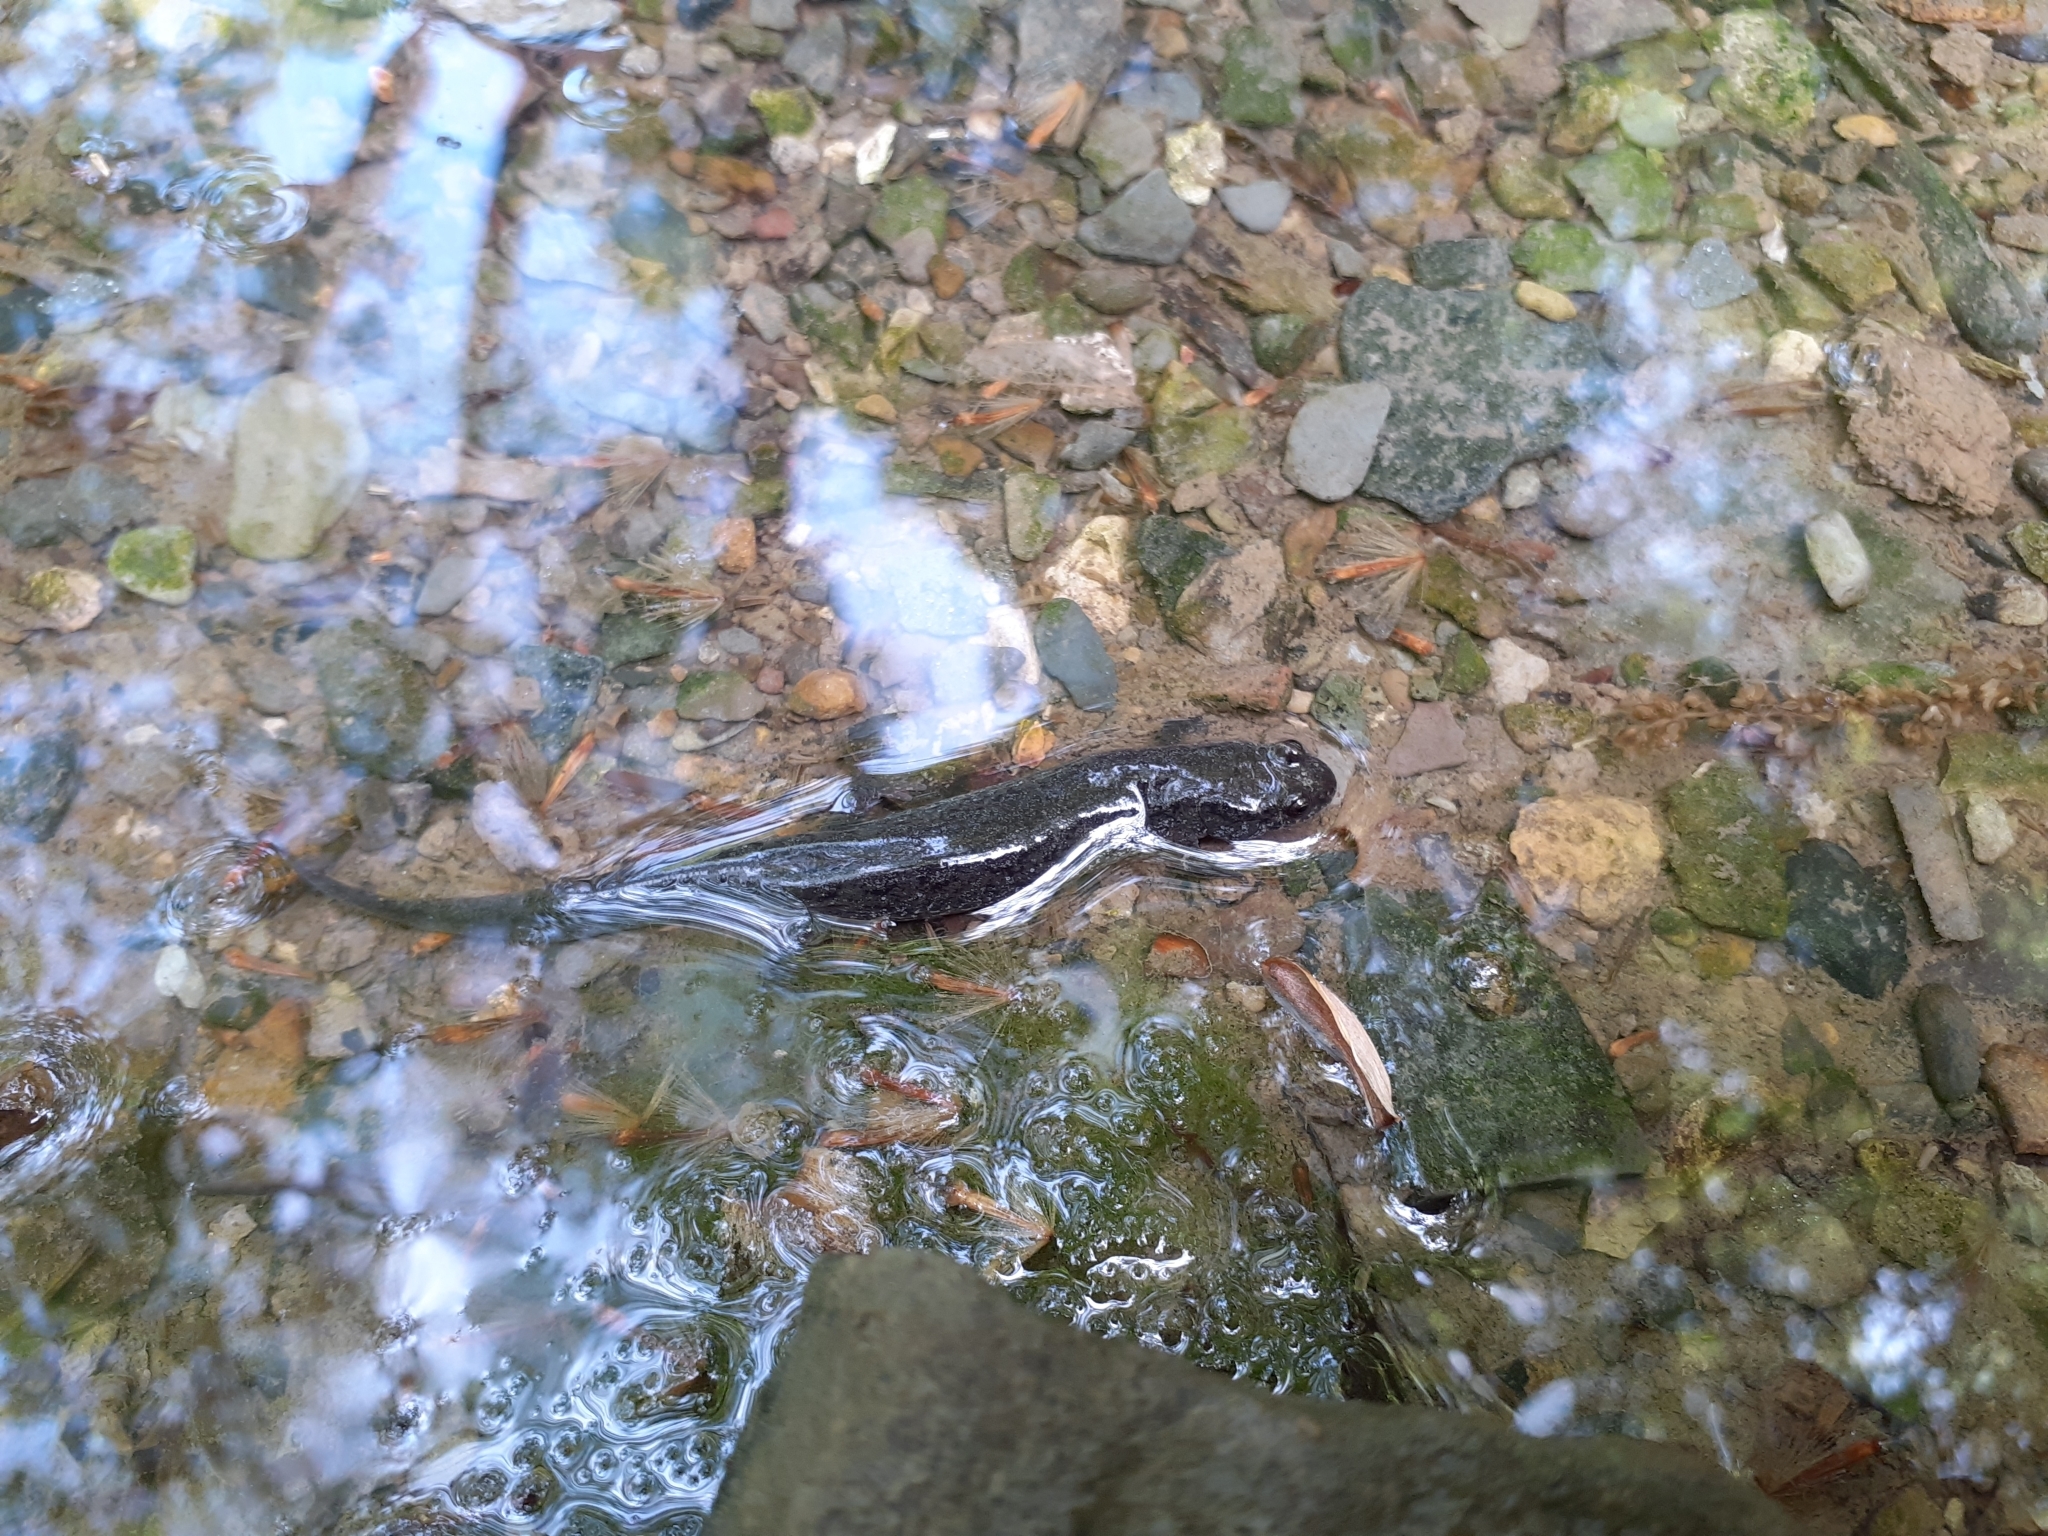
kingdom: Animalia
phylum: Chordata
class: Amphibia
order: Caudata
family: Plethodontidae
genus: Desmognathus
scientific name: Desmognathus fuscus
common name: Northern dusky salamander
